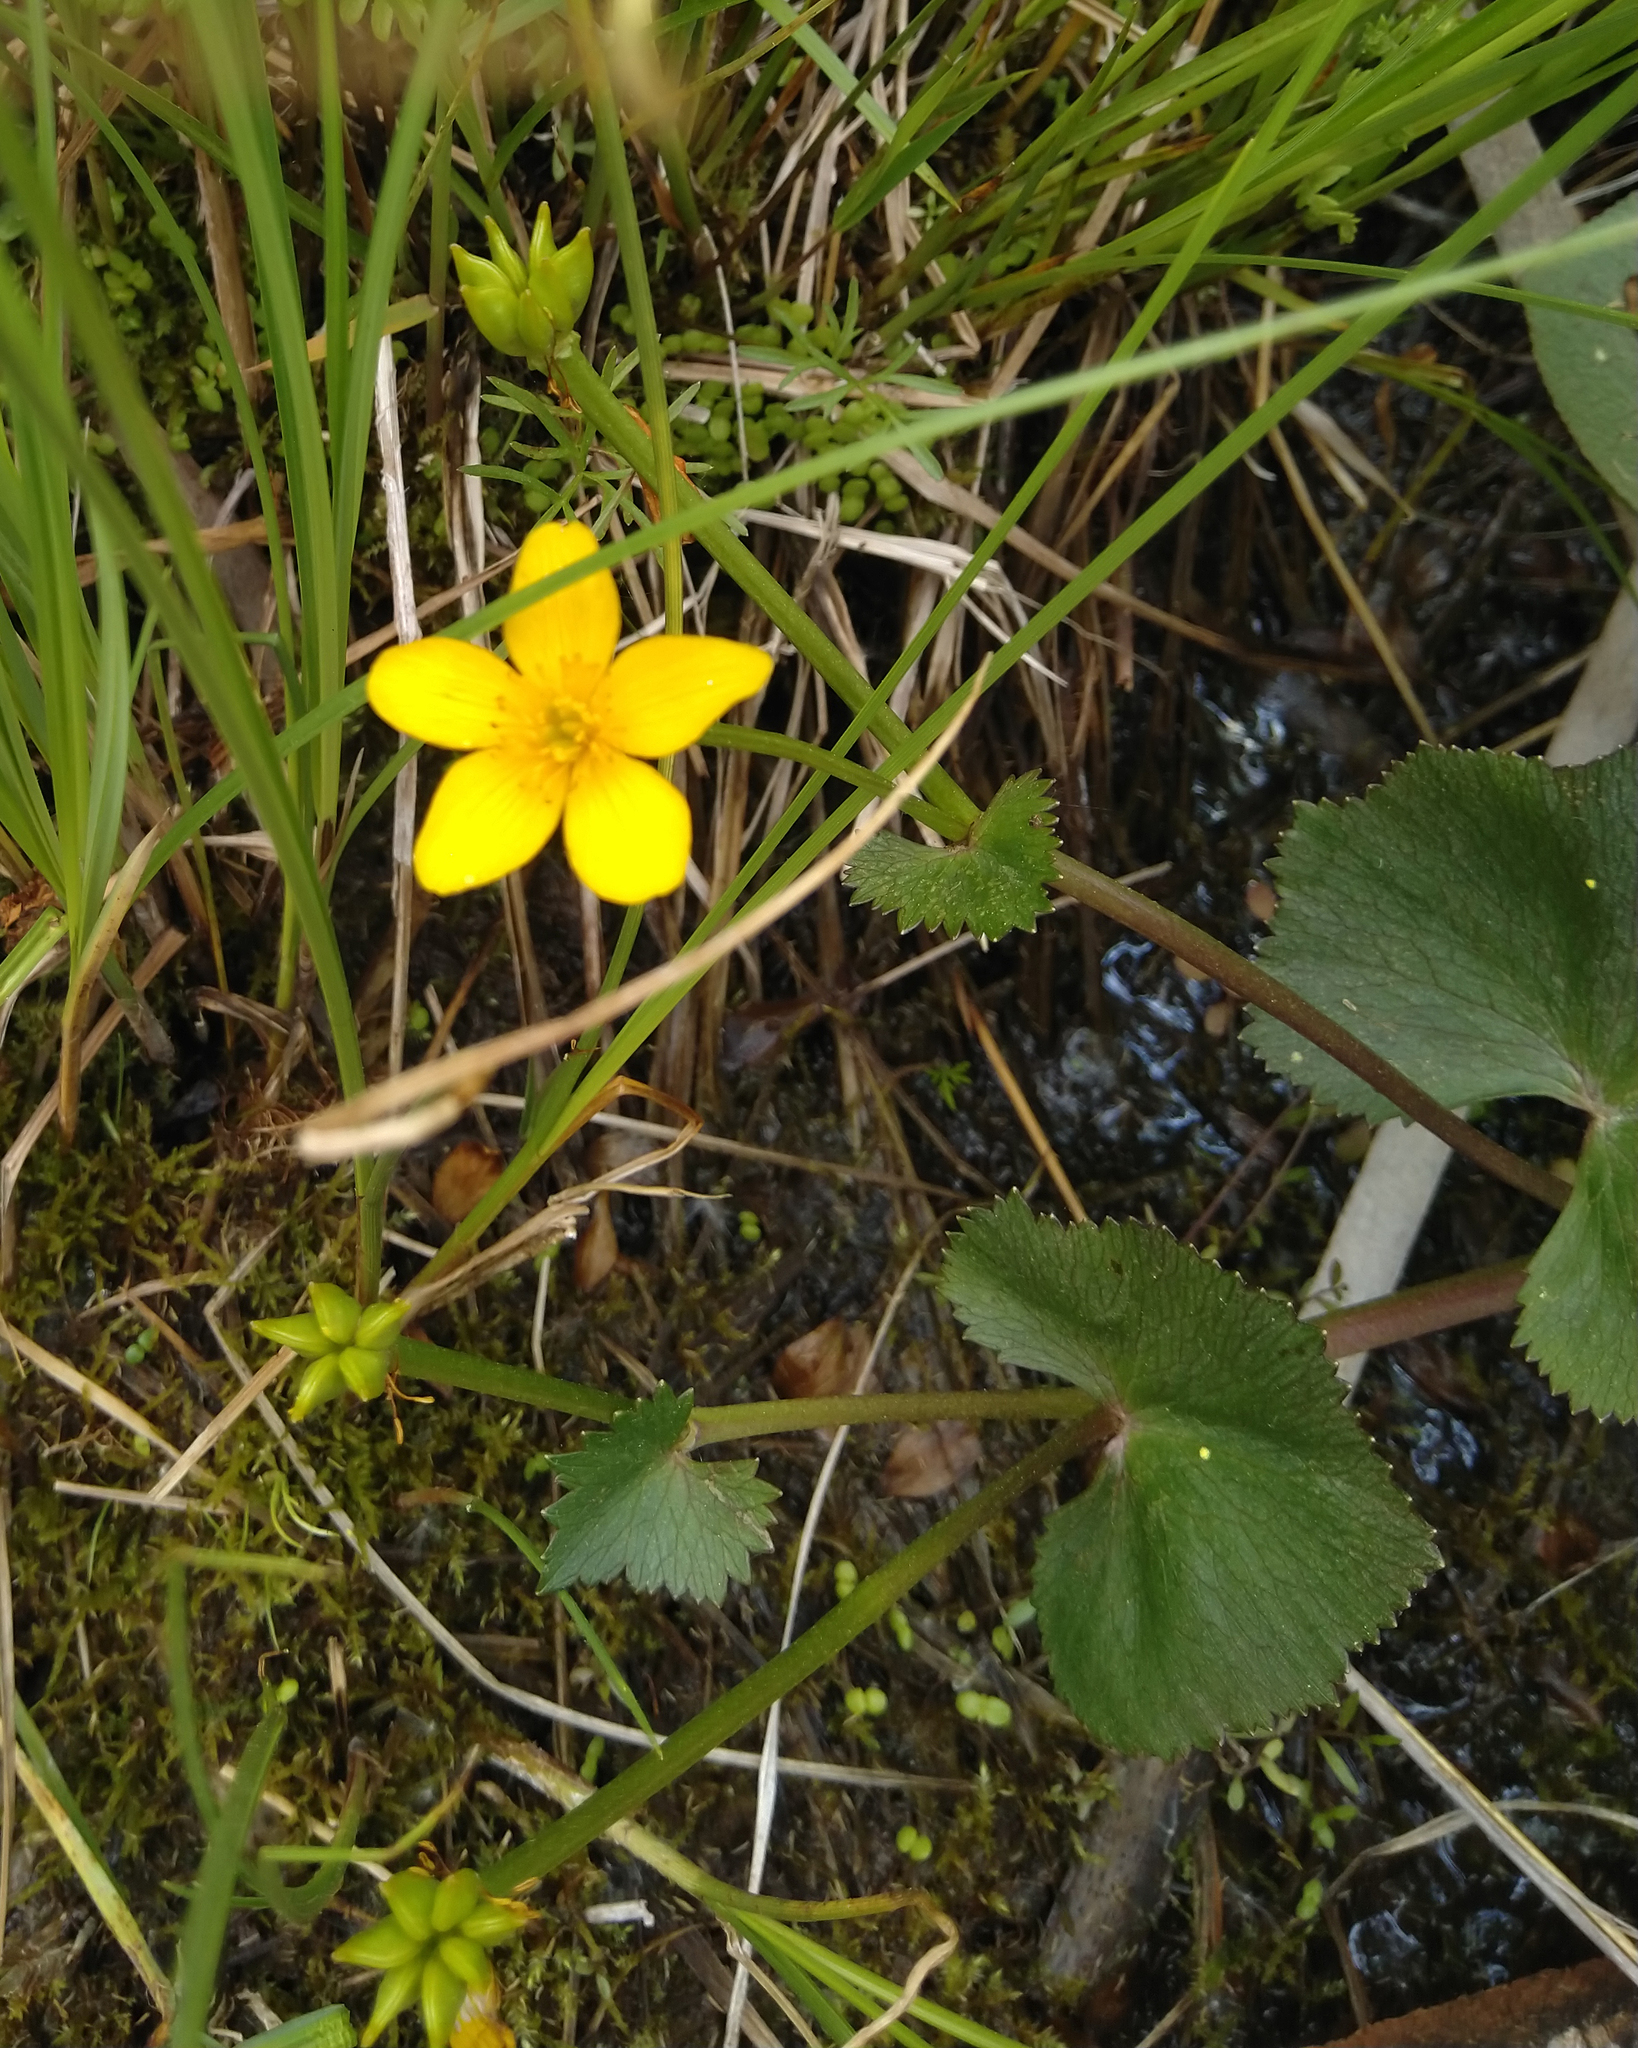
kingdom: Plantae
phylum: Tracheophyta
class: Magnoliopsida
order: Ranunculales
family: Ranunculaceae
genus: Caltha
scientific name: Caltha palustris
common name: Marsh marigold
